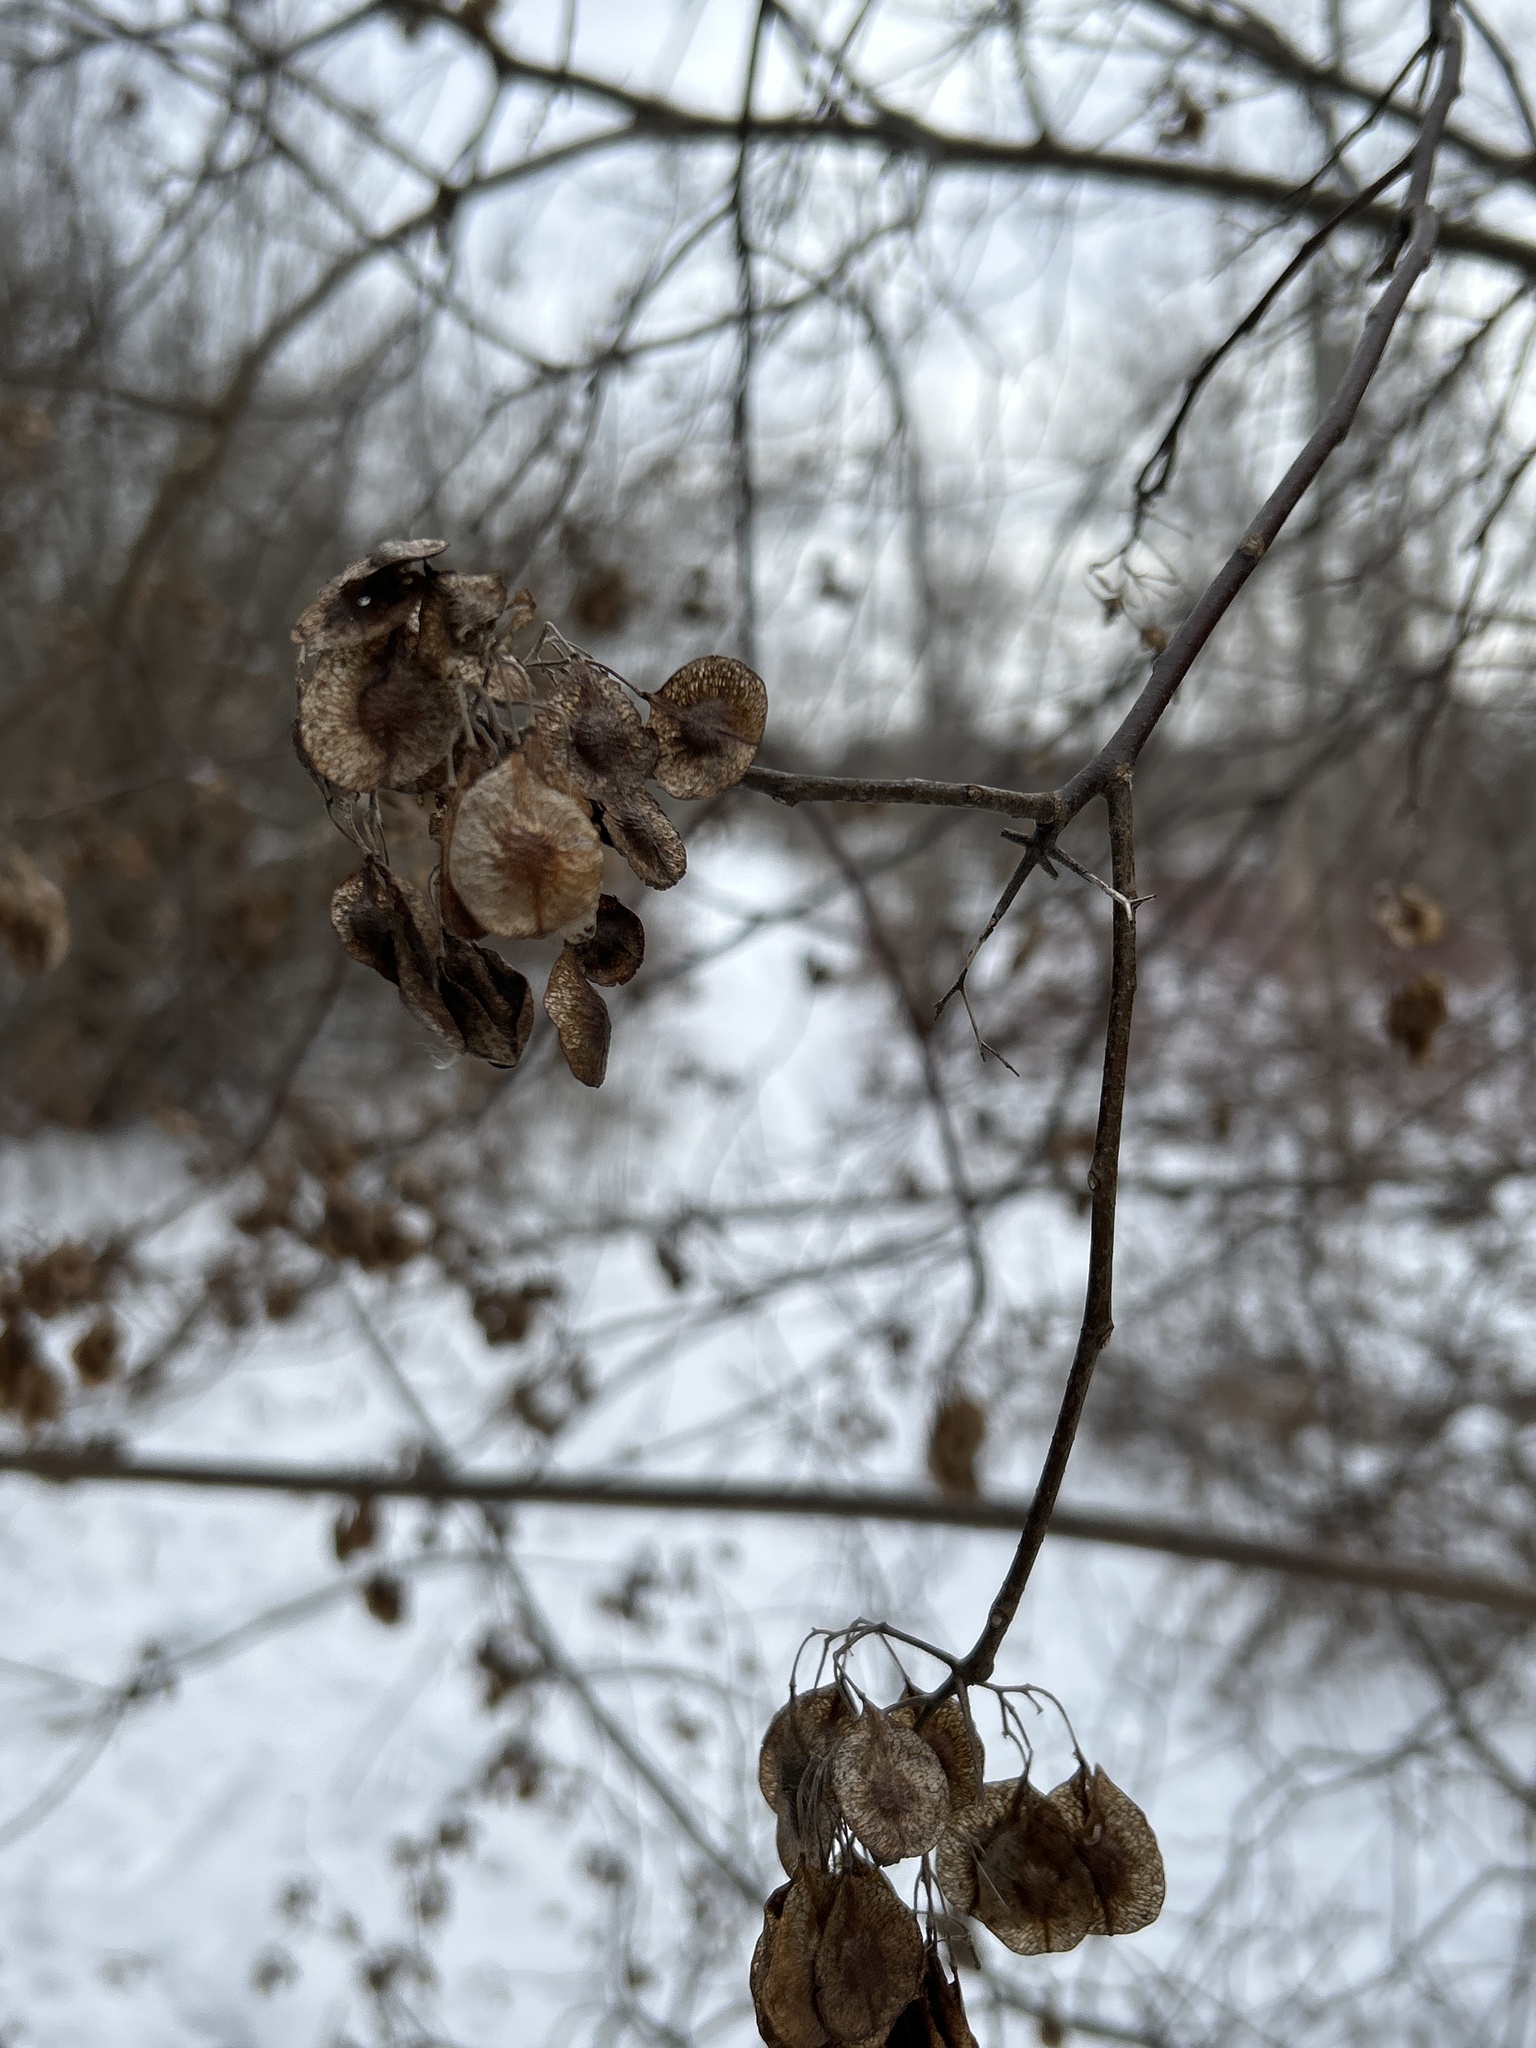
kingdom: Plantae
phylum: Tracheophyta
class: Magnoliopsida
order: Sapindales
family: Rutaceae
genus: Ptelea
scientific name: Ptelea trifoliata
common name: Common hop-tree
